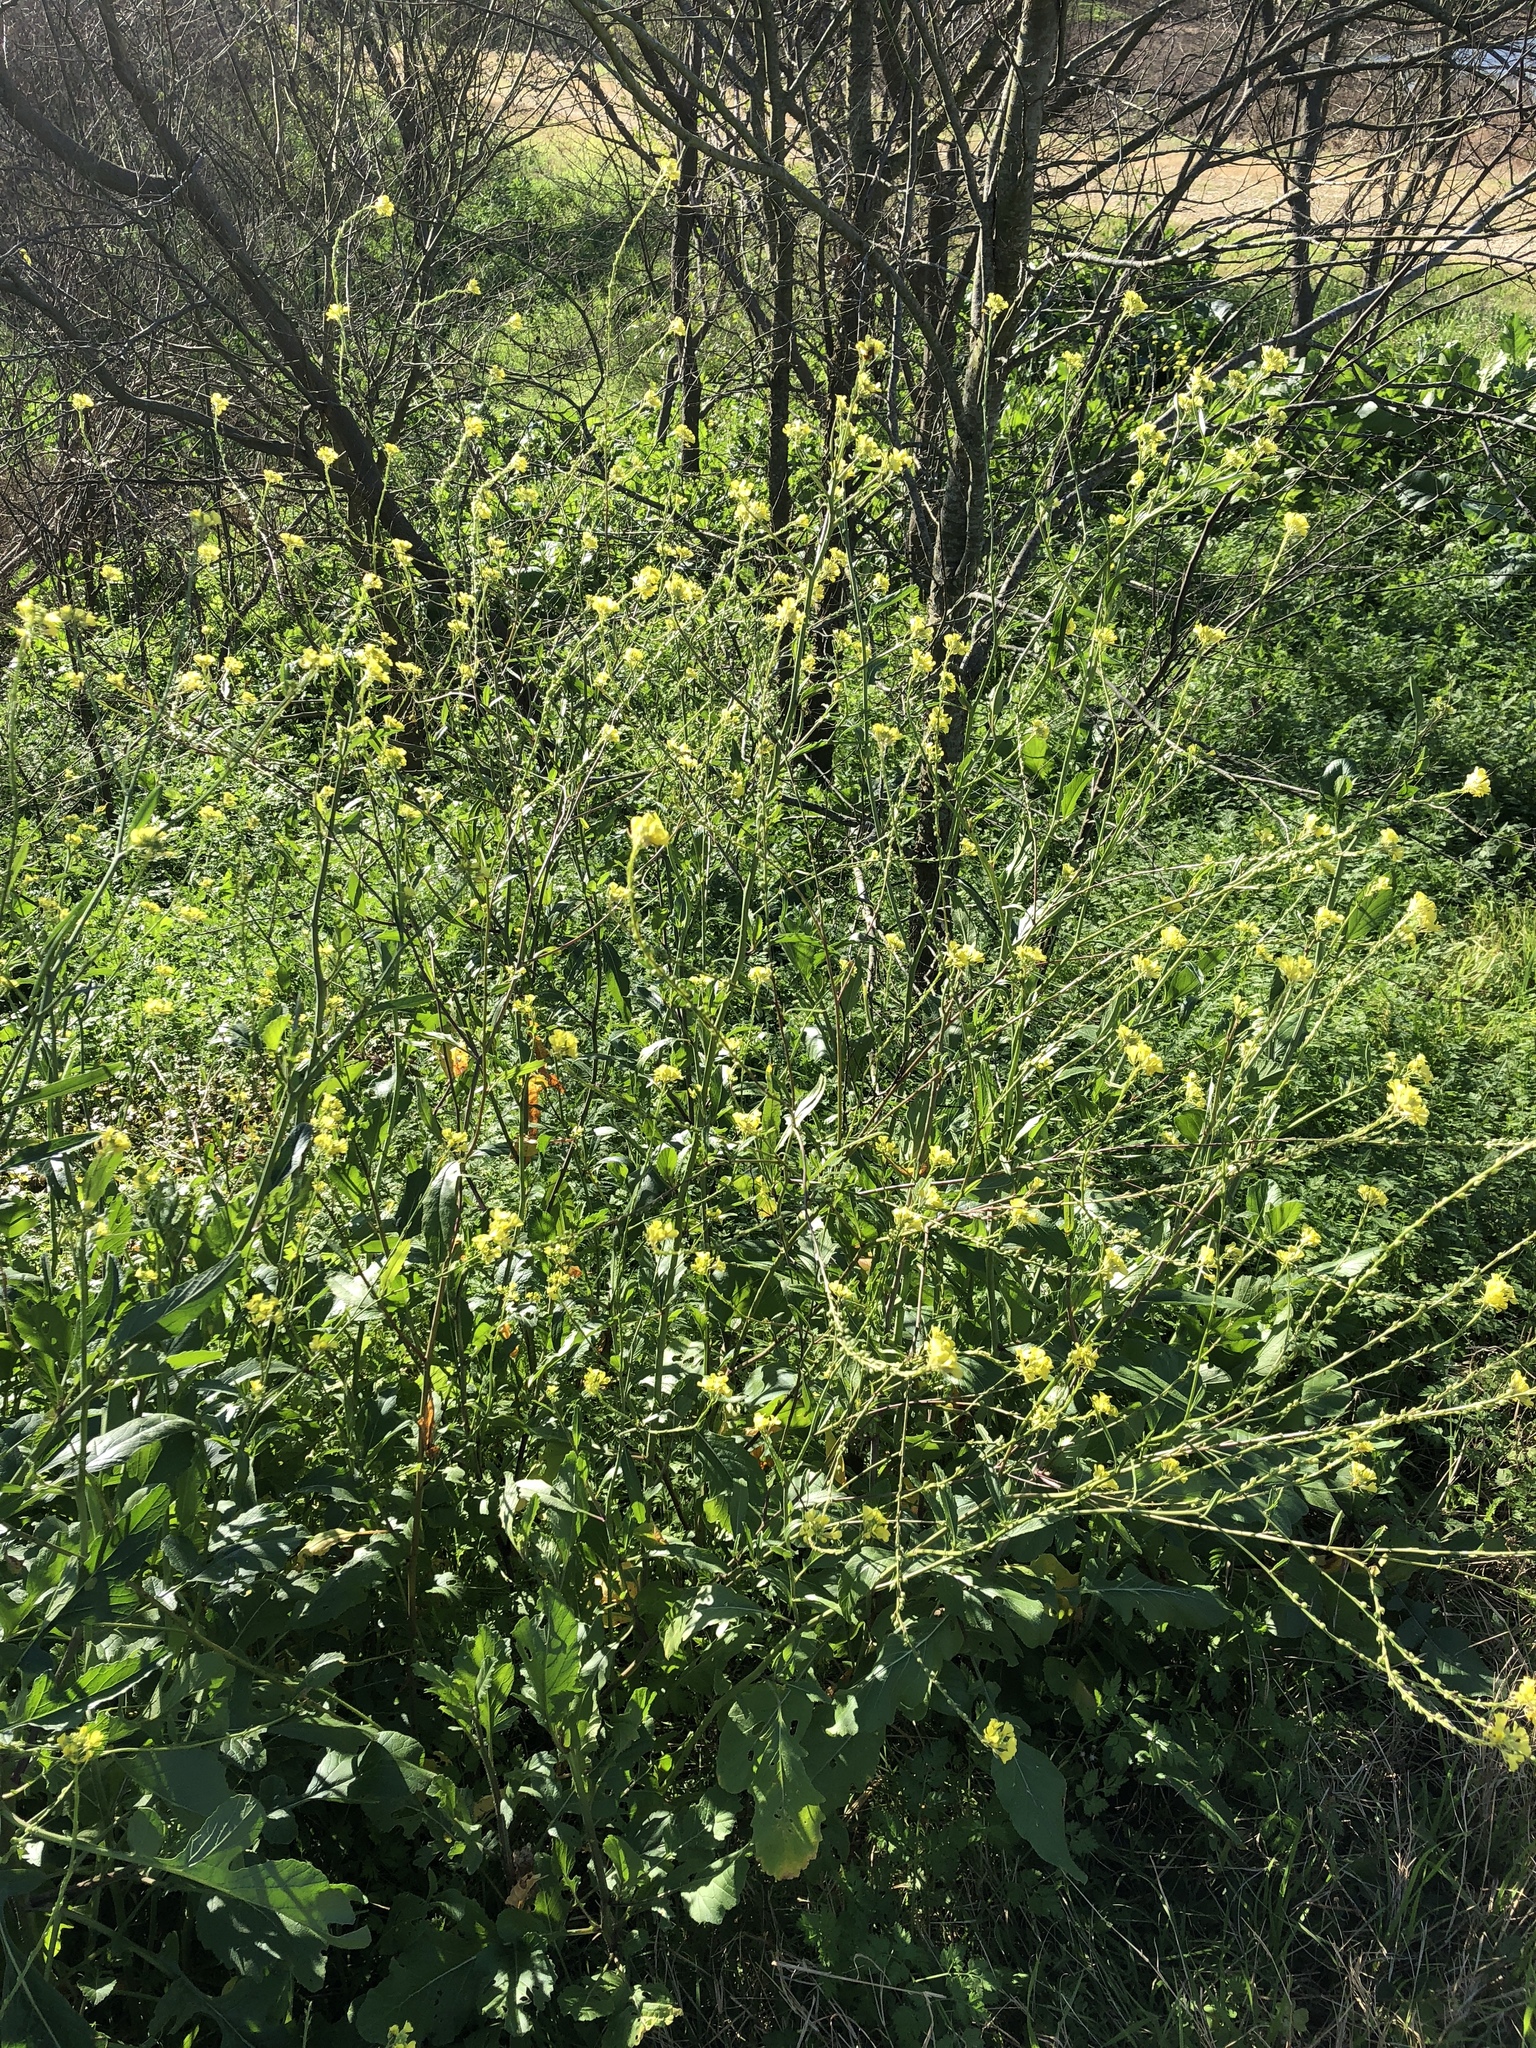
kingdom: Plantae
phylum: Tracheophyta
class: Magnoliopsida
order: Brassicales
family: Brassicaceae
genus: Rapistrum
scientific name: Rapistrum rugosum
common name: Annual bastardcabbage
